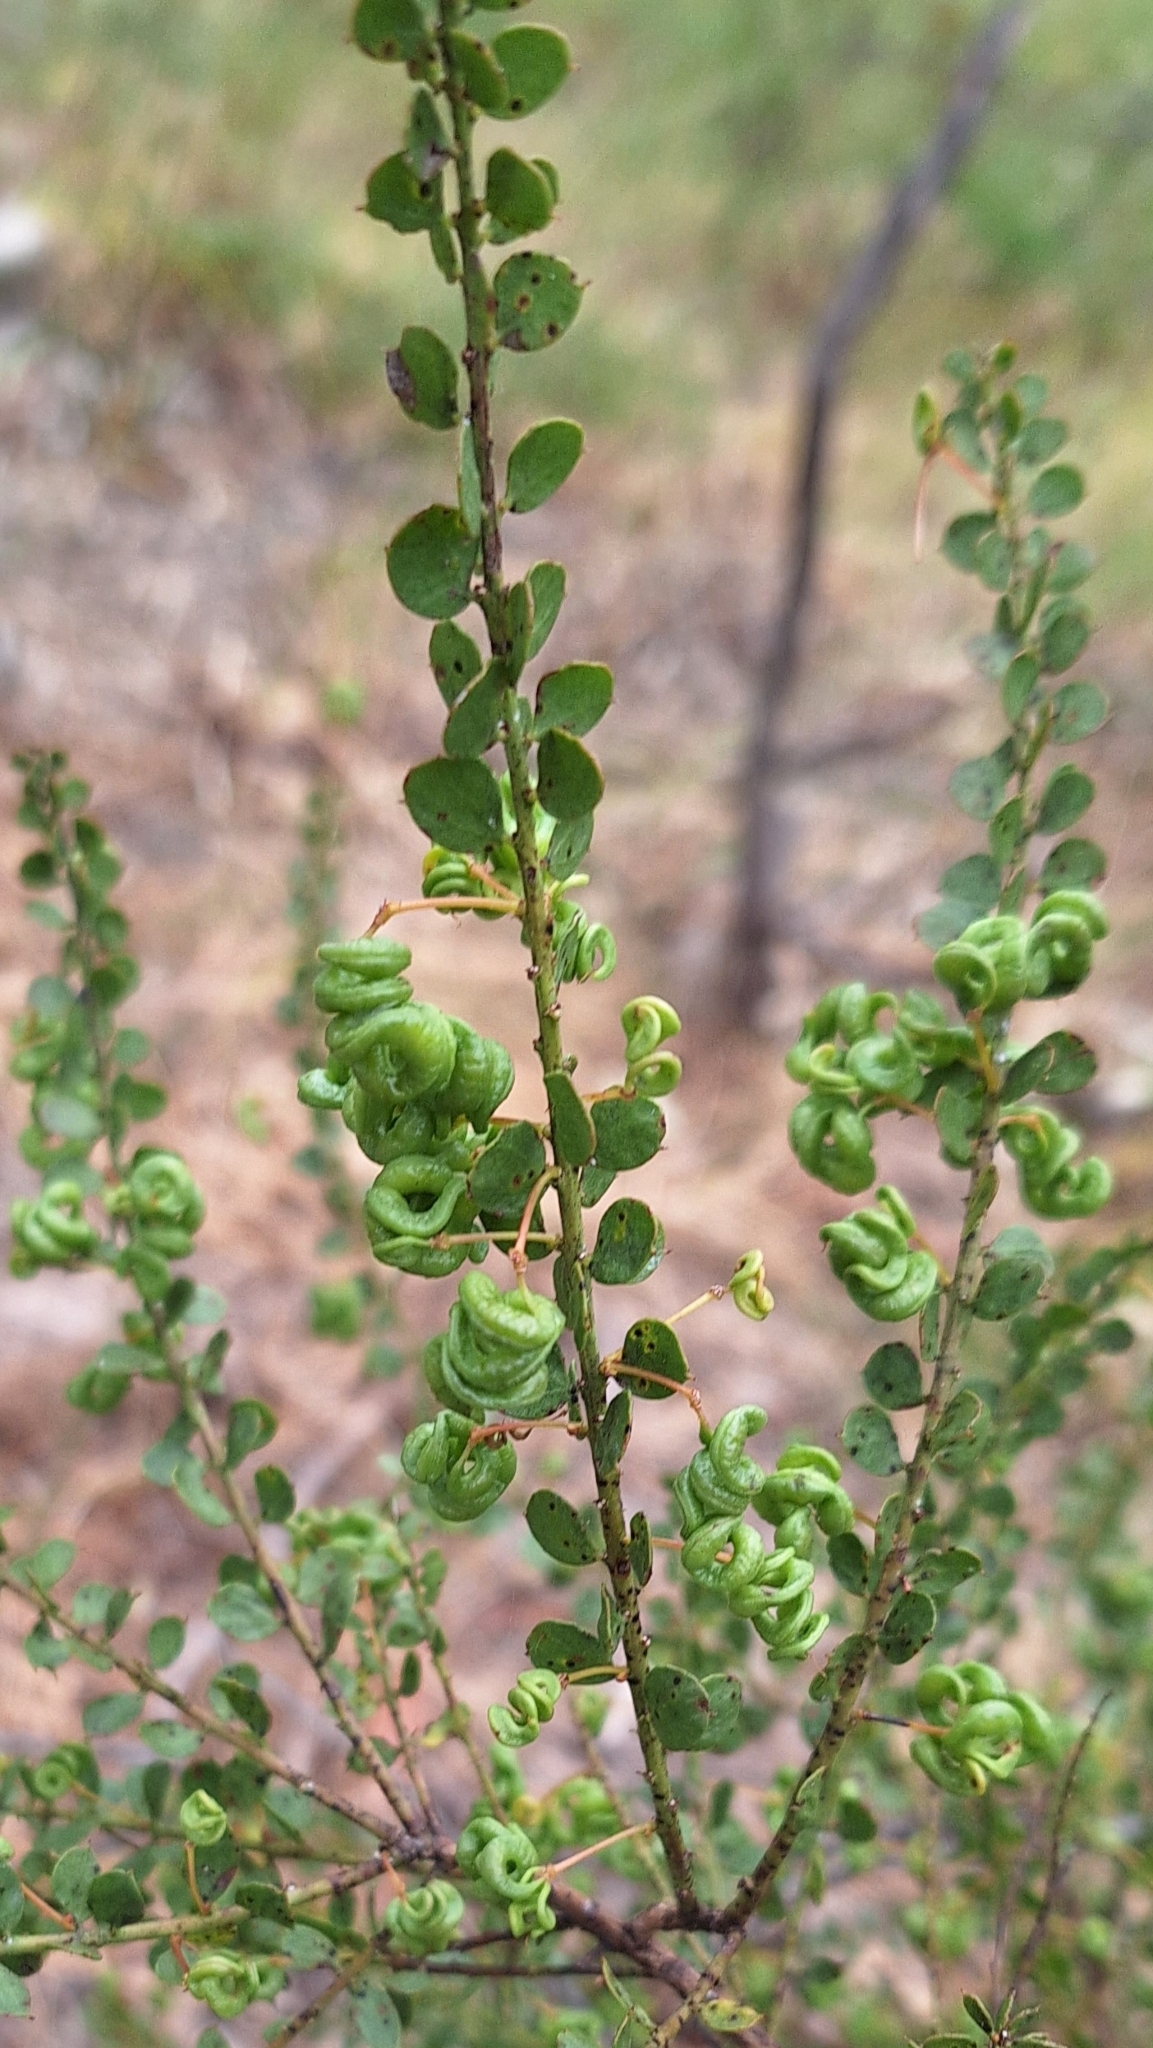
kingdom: Plantae
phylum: Tracheophyta
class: Magnoliopsida
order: Fabales
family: Fabaceae
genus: Acacia
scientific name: Acacia acinacea
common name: Gold-dust acacia
